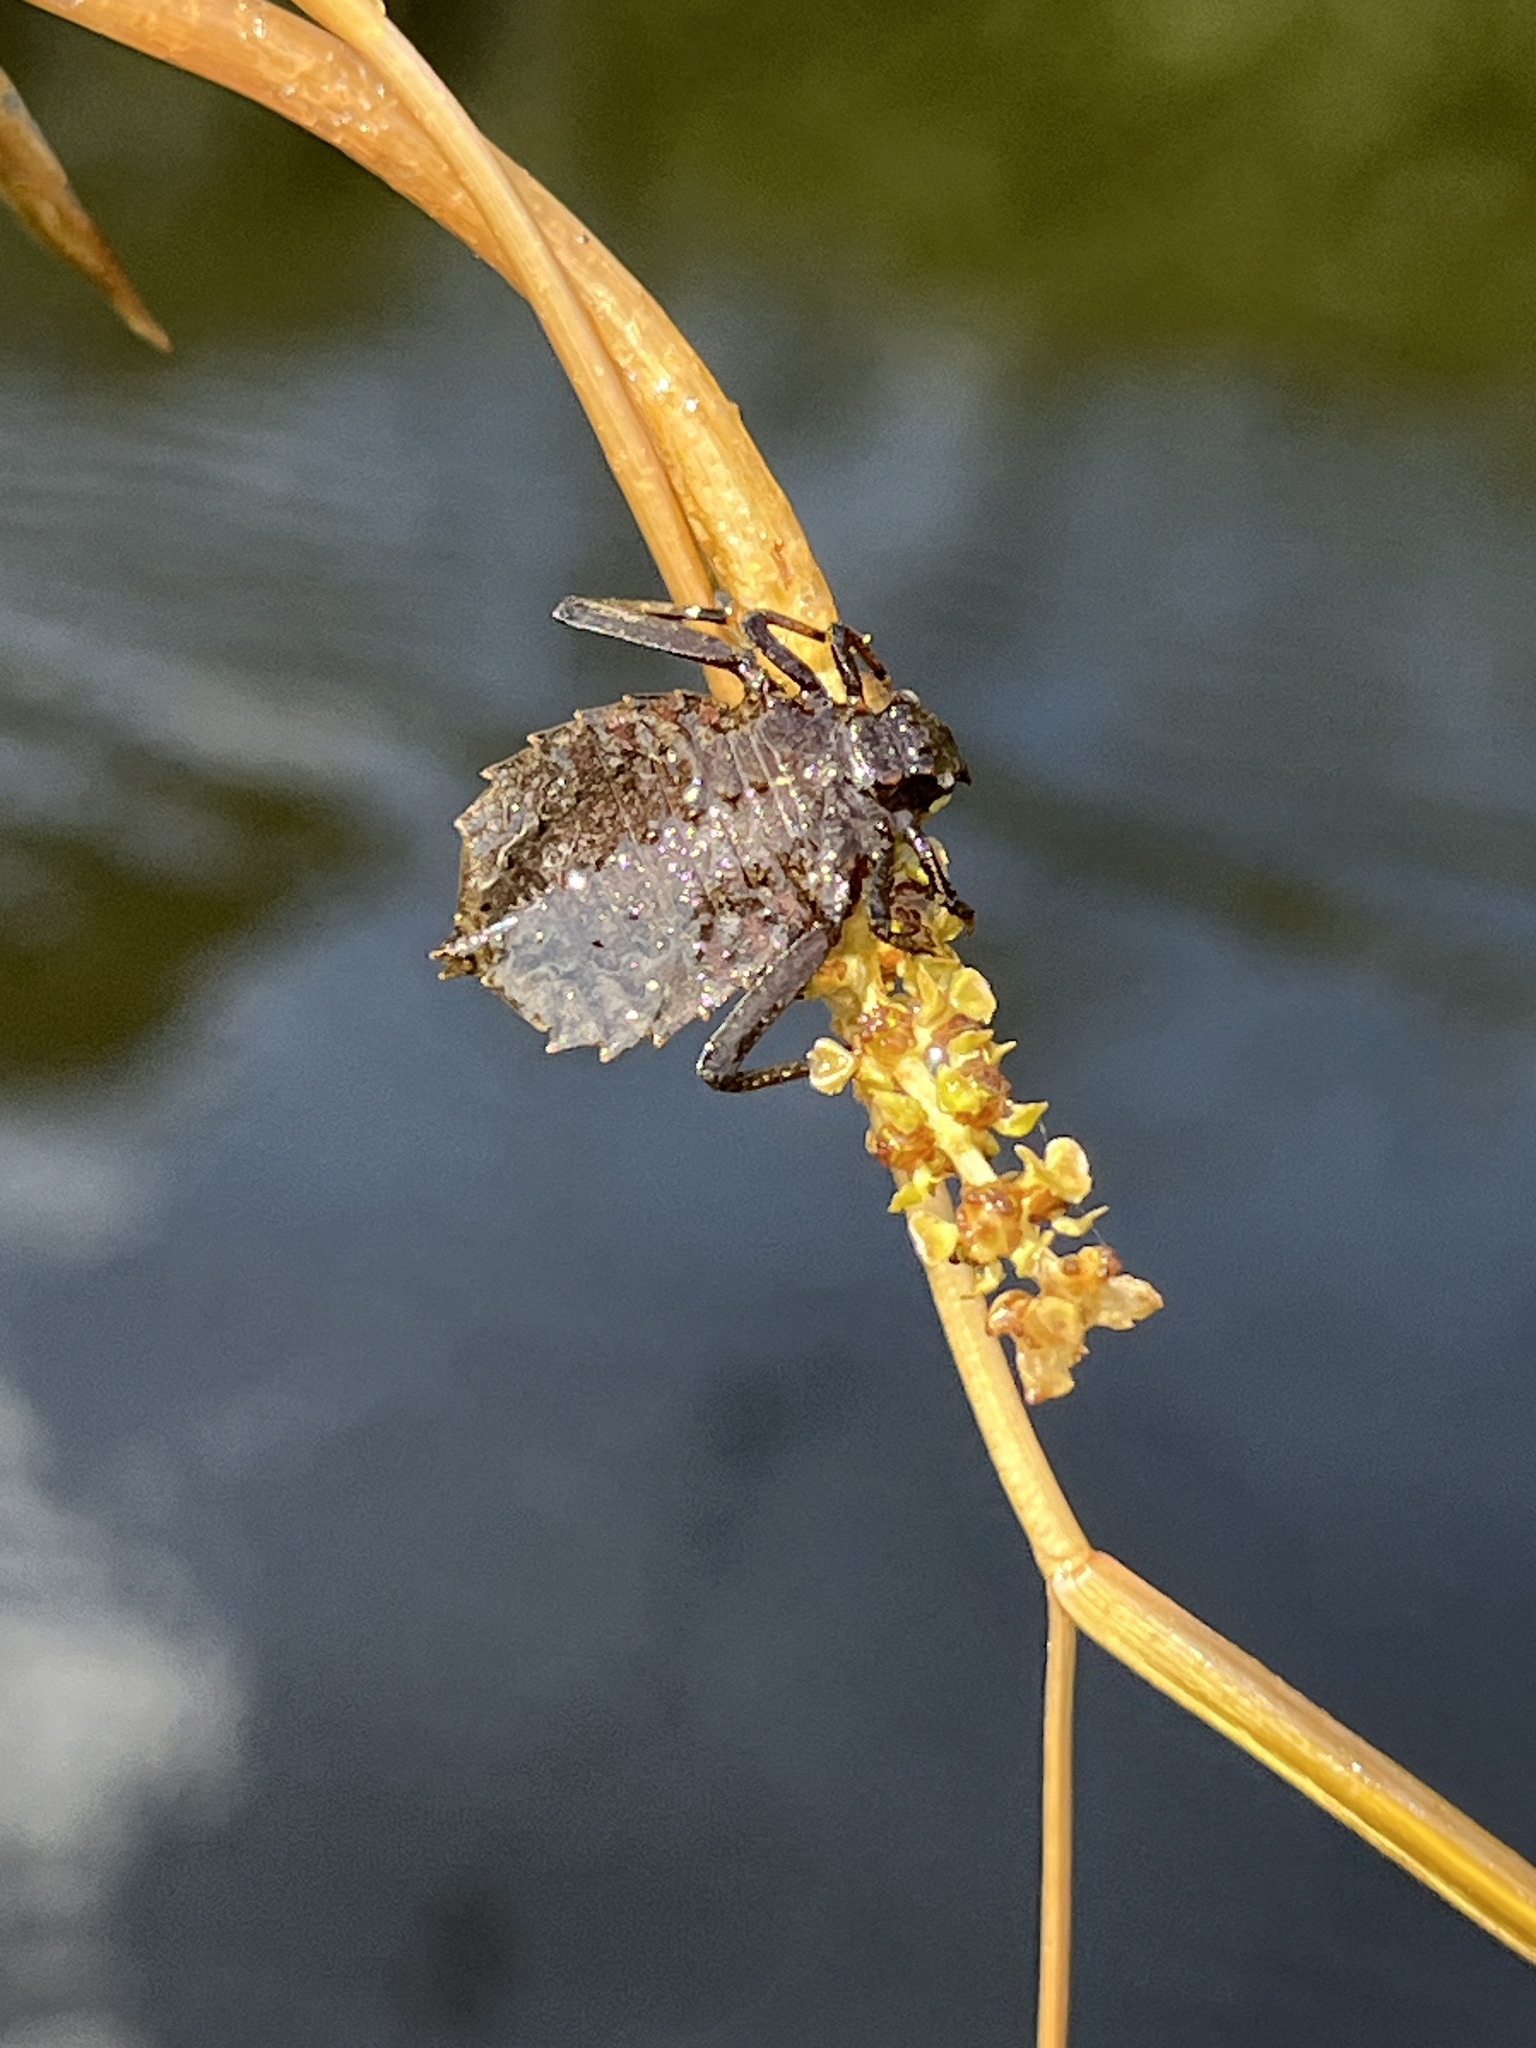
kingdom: Animalia
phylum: Arthropoda
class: Insecta
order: Odonata
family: Gomphidae
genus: Hagenius
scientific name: Hagenius brevistylus
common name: Dragonhunter
